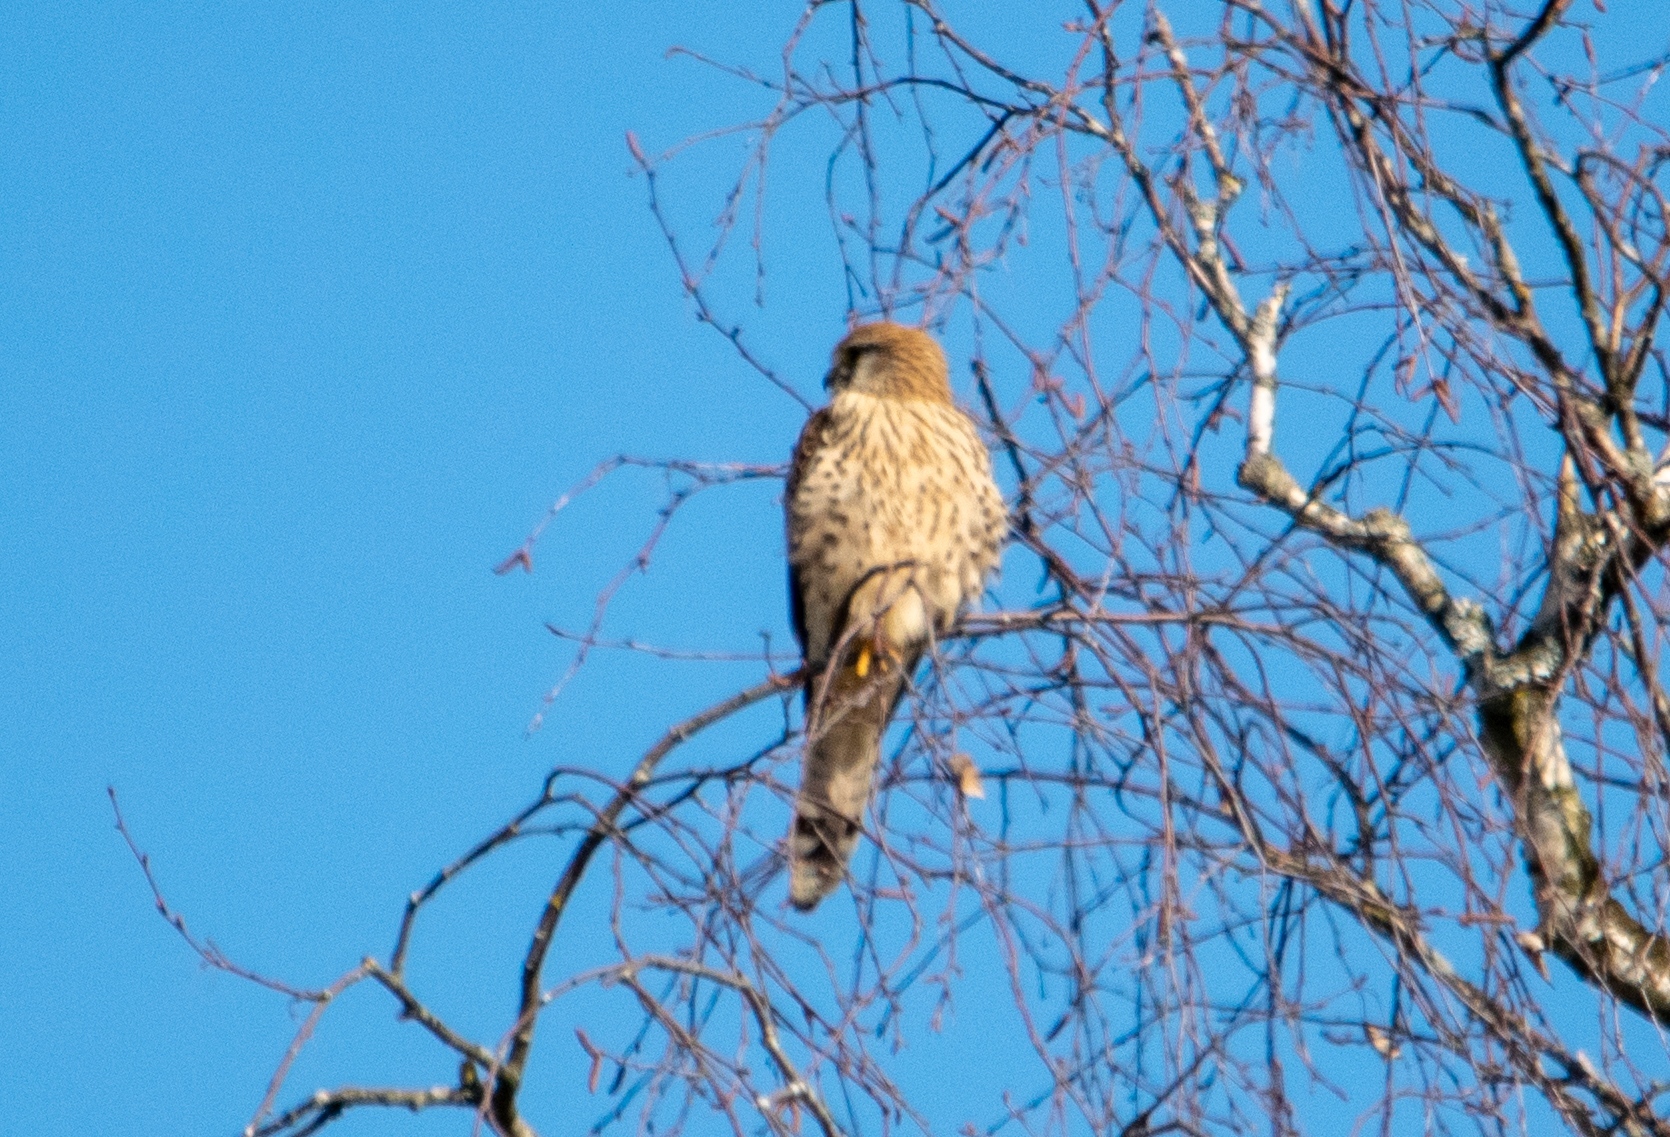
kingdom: Animalia
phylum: Chordata
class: Aves
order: Falconiformes
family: Falconidae
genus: Falco
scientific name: Falco tinnunculus
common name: Common kestrel
